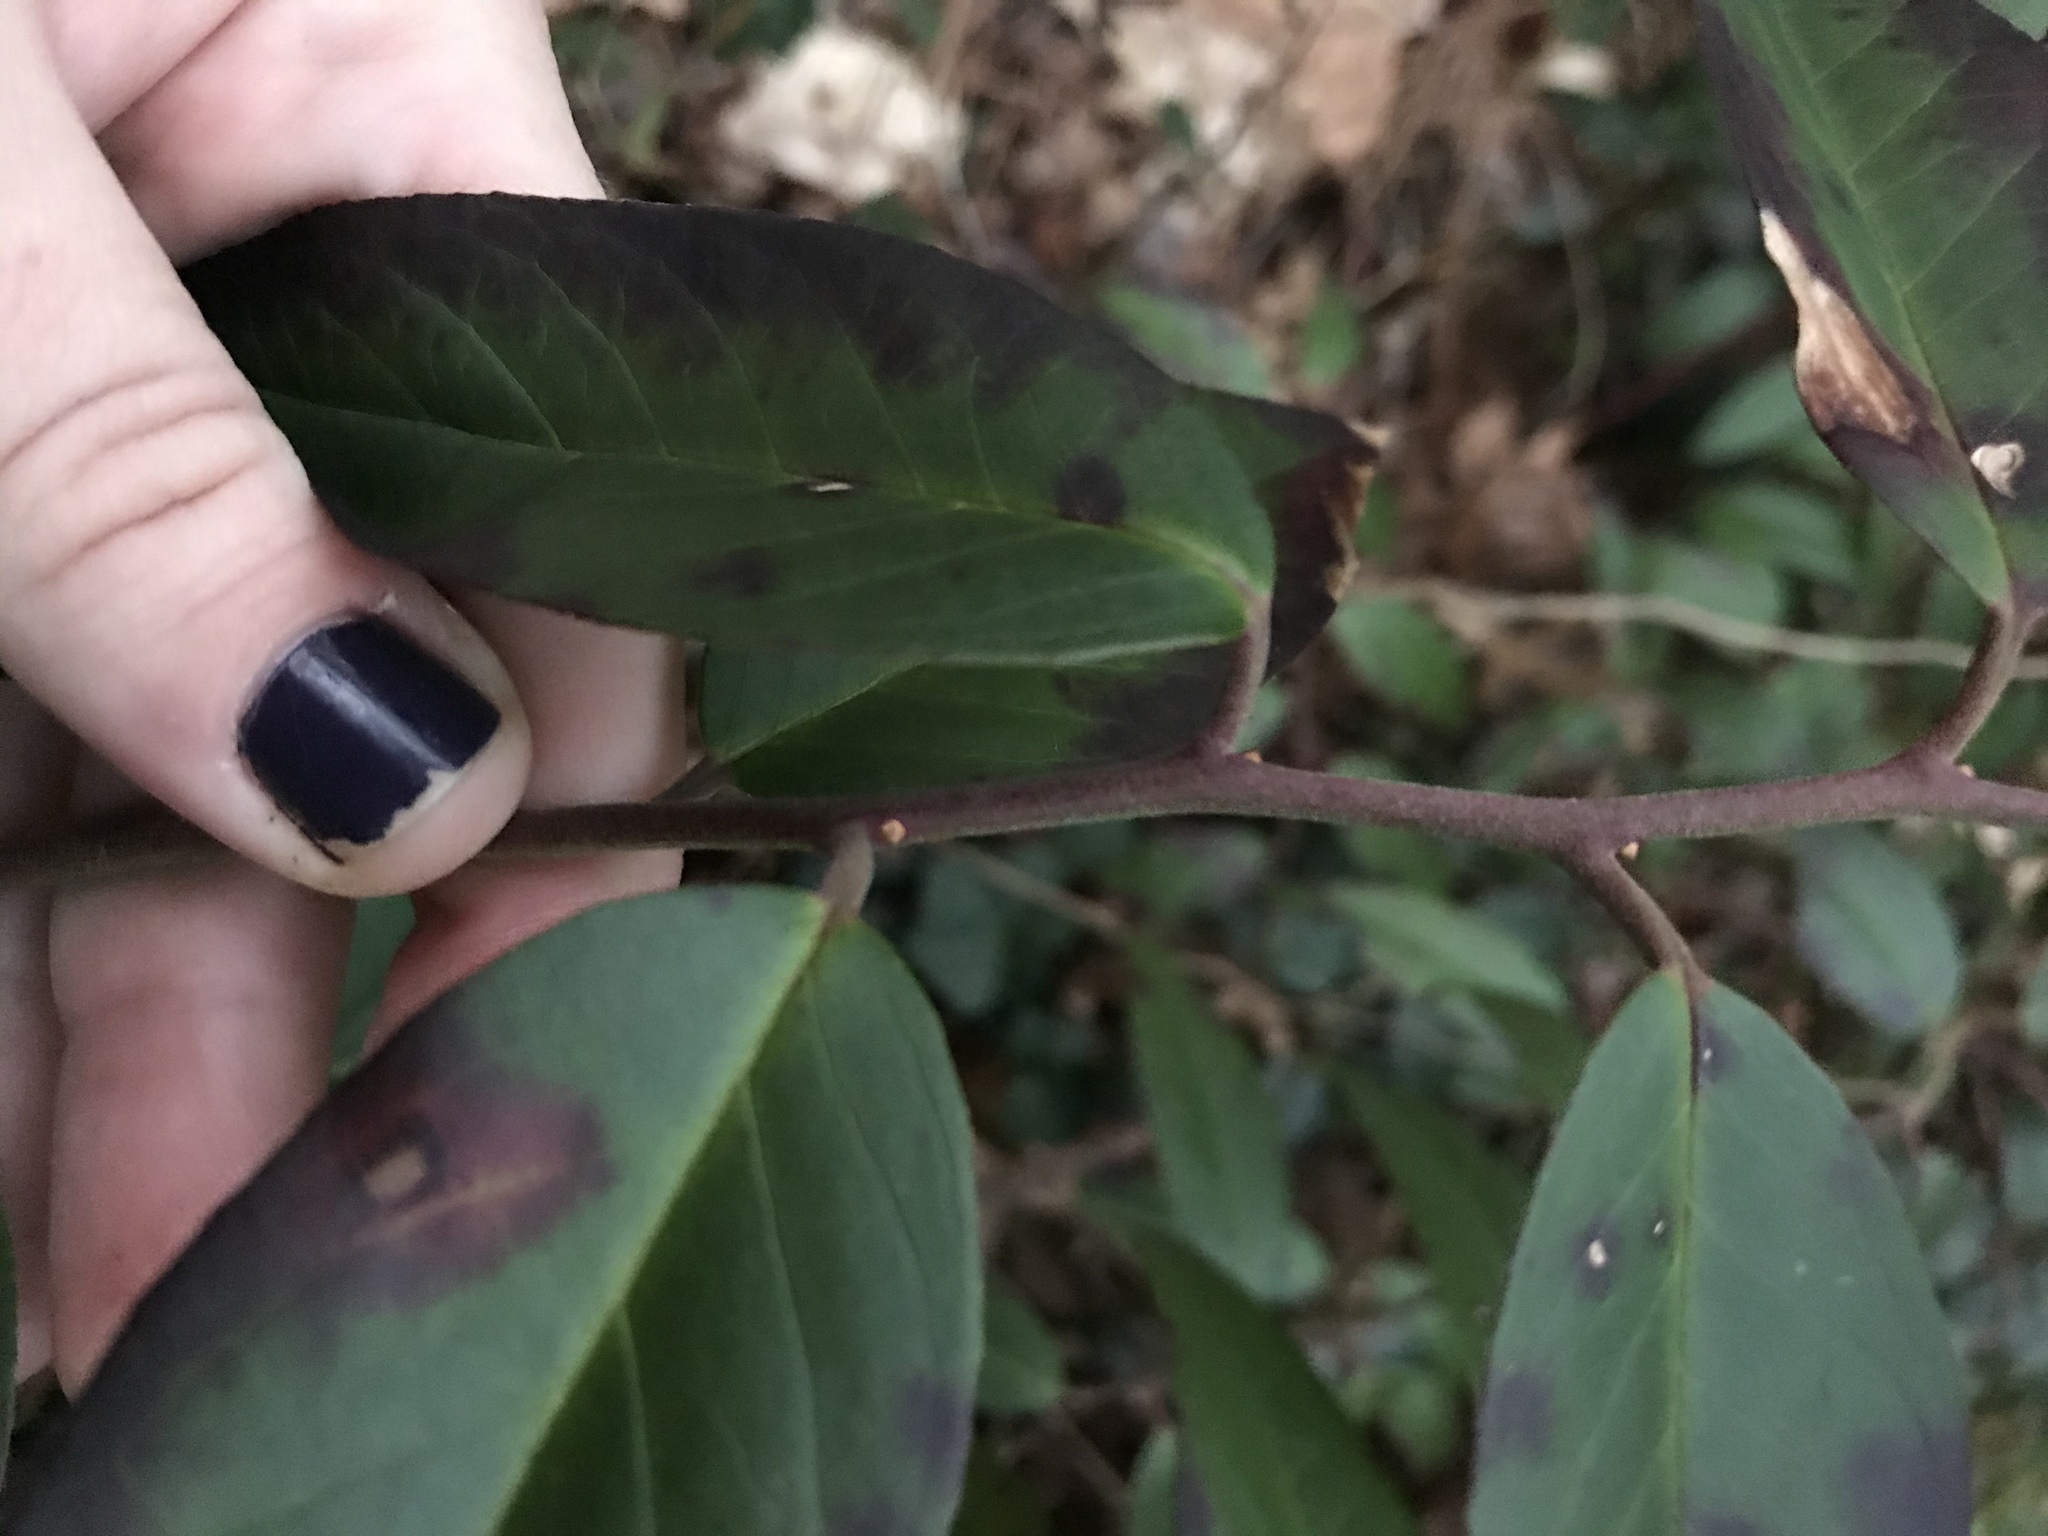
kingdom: Plantae
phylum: Tracheophyta
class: Magnoliopsida
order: Ericales
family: Ericaceae
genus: Leucothoe
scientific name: Leucothoe fontanesiana
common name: Fetterbush
